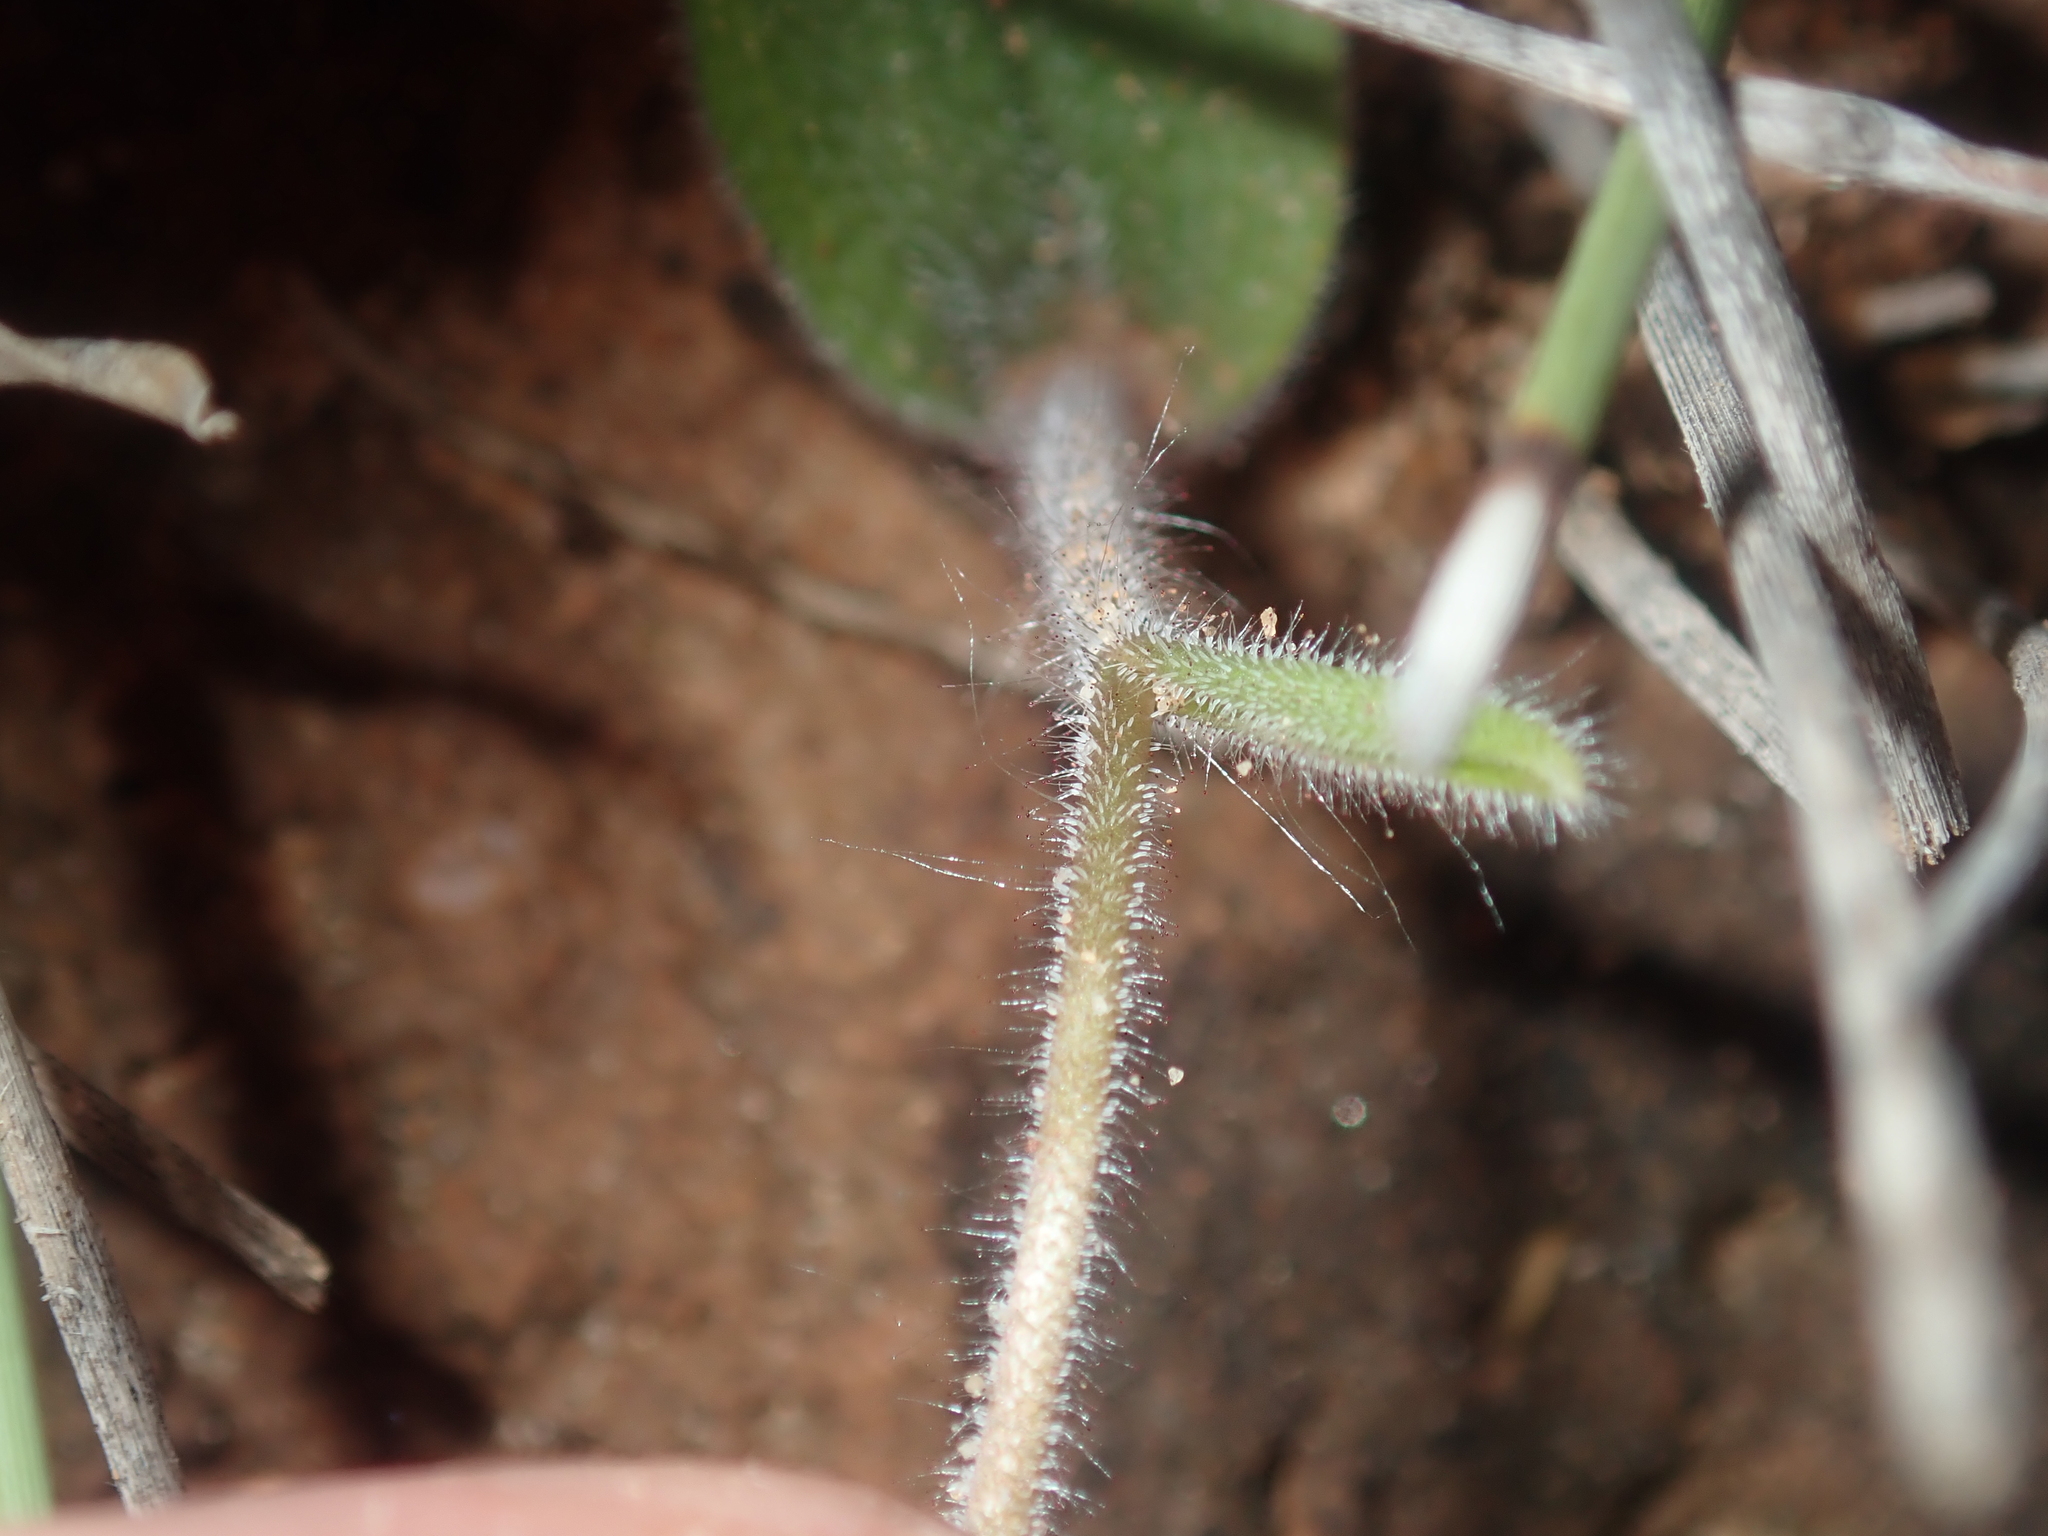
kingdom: Plantae
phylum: Tracheophyta
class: Liliopsida
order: Asparagales
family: Orchidaceae
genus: Caladenia
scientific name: Caladenia flava
